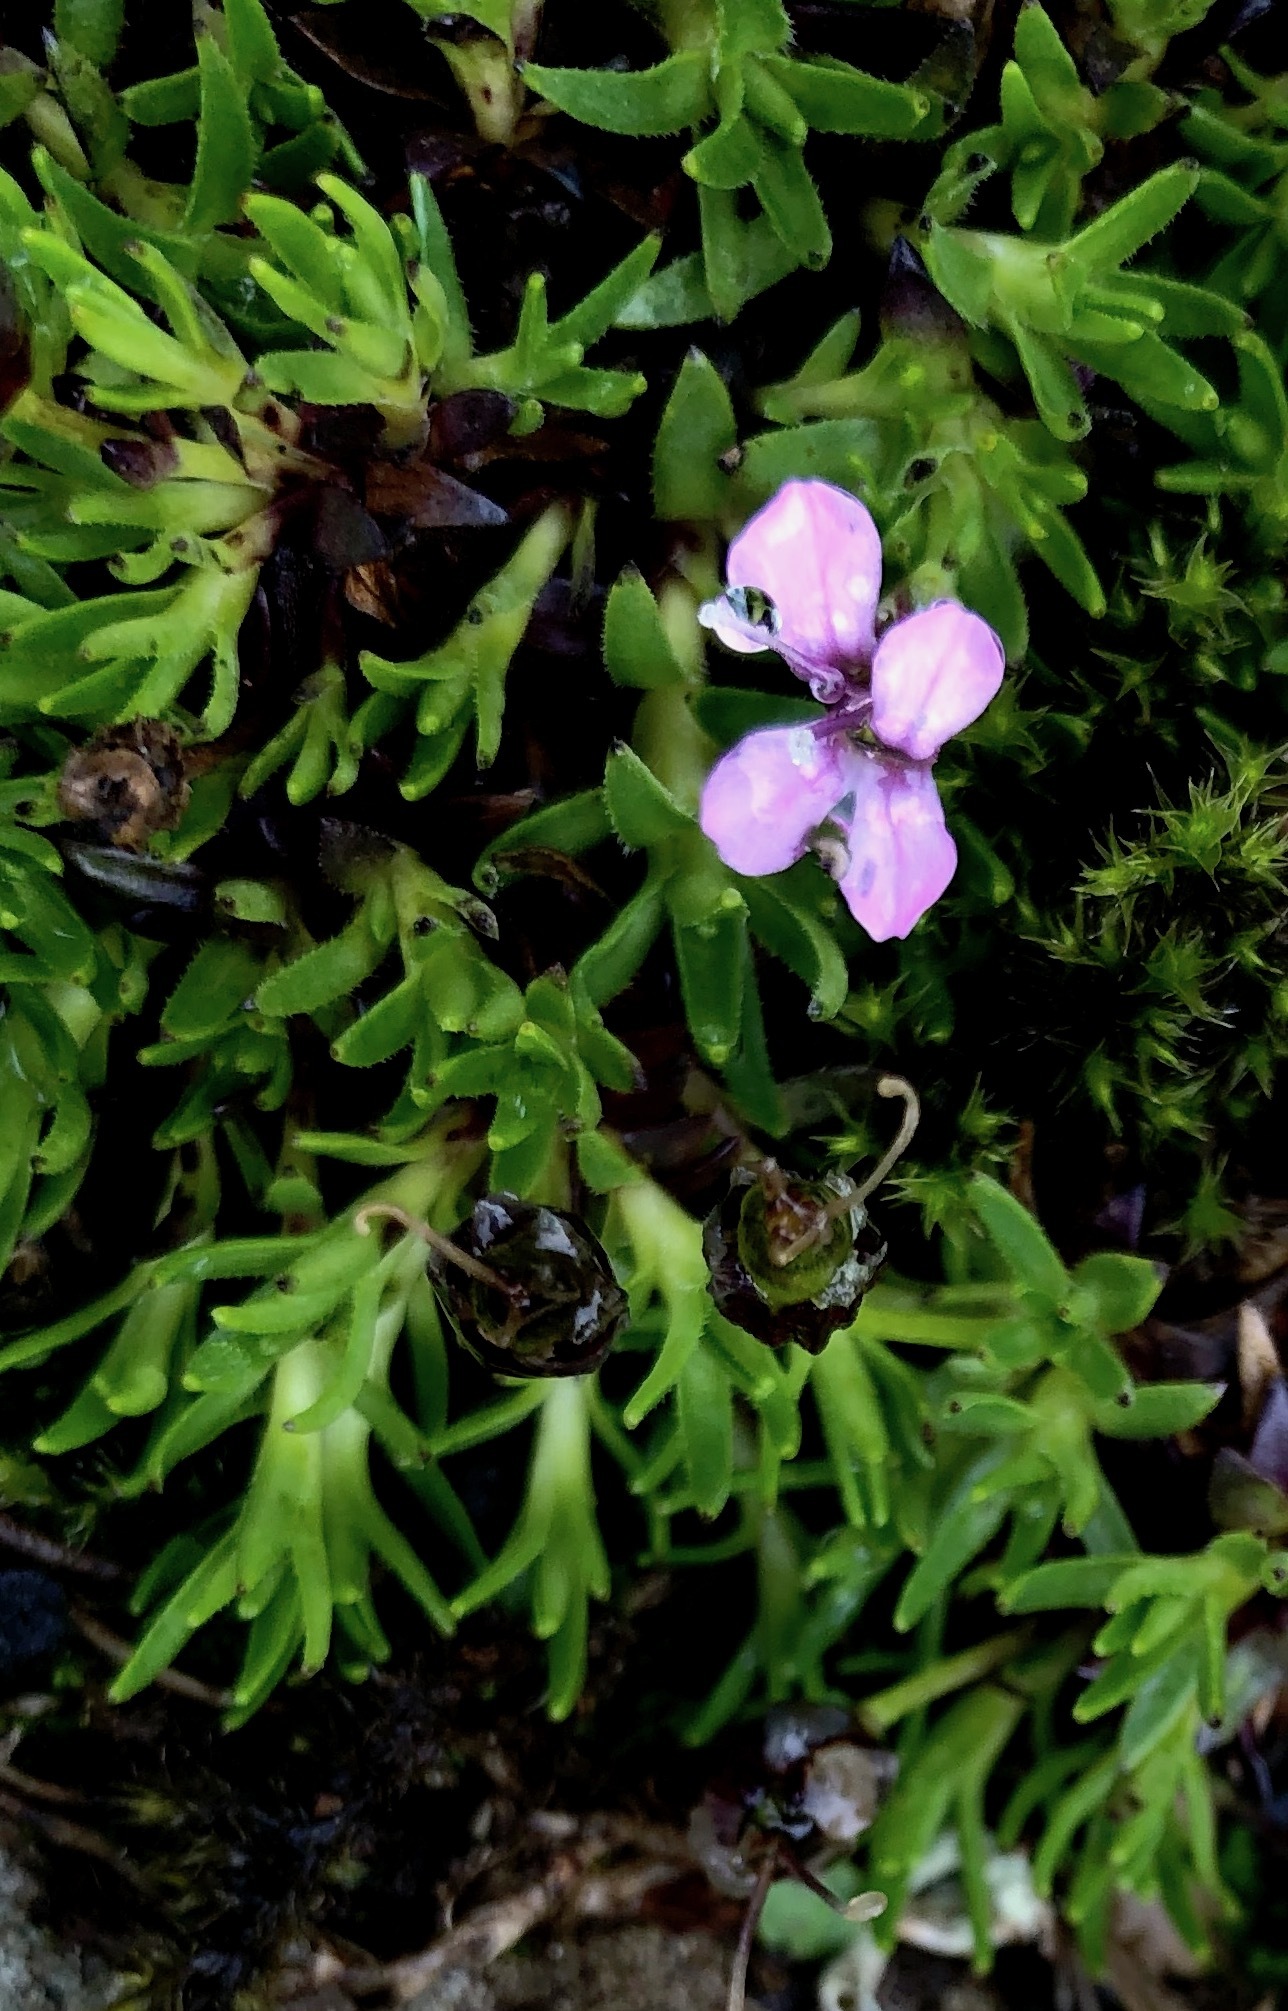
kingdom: Plantae
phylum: Tracheophyta
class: Magnoliopsida
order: Caryophyllales
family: Caryophyllaceae
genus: Silene
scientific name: Silene acaulis
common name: Moss campion
